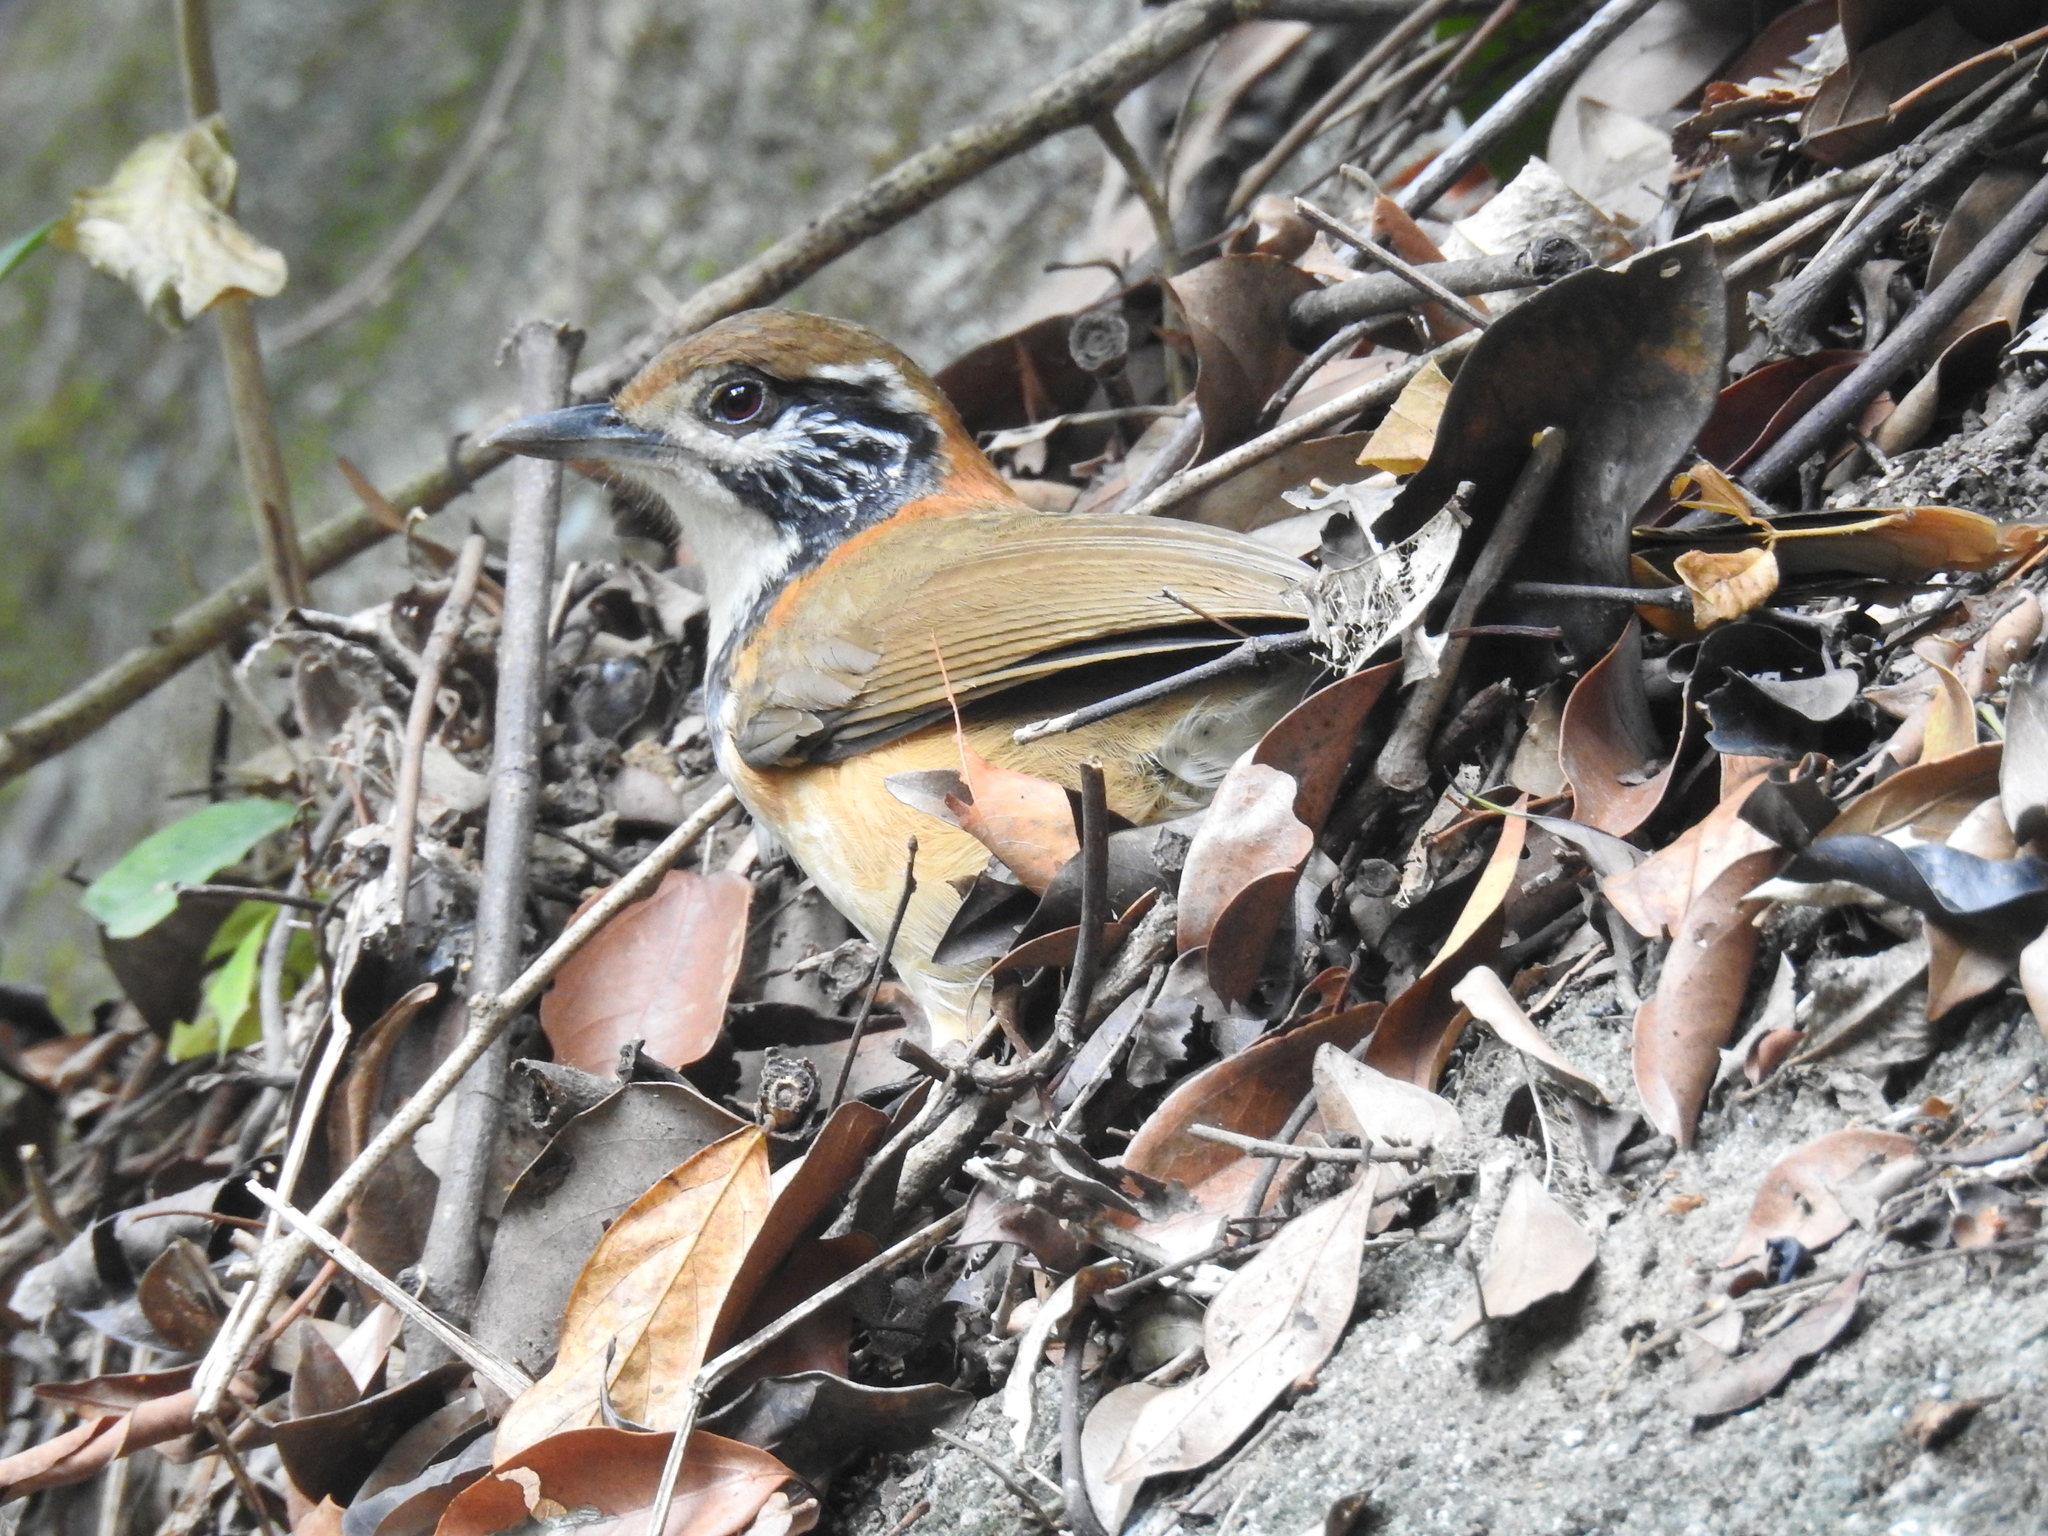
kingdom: Animalia
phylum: Chordata
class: Aves
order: Passeriformes
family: Leiothrichidae
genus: Garrulax
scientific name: Garrulax pectoralis
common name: Greater necklaced laughingthrush
